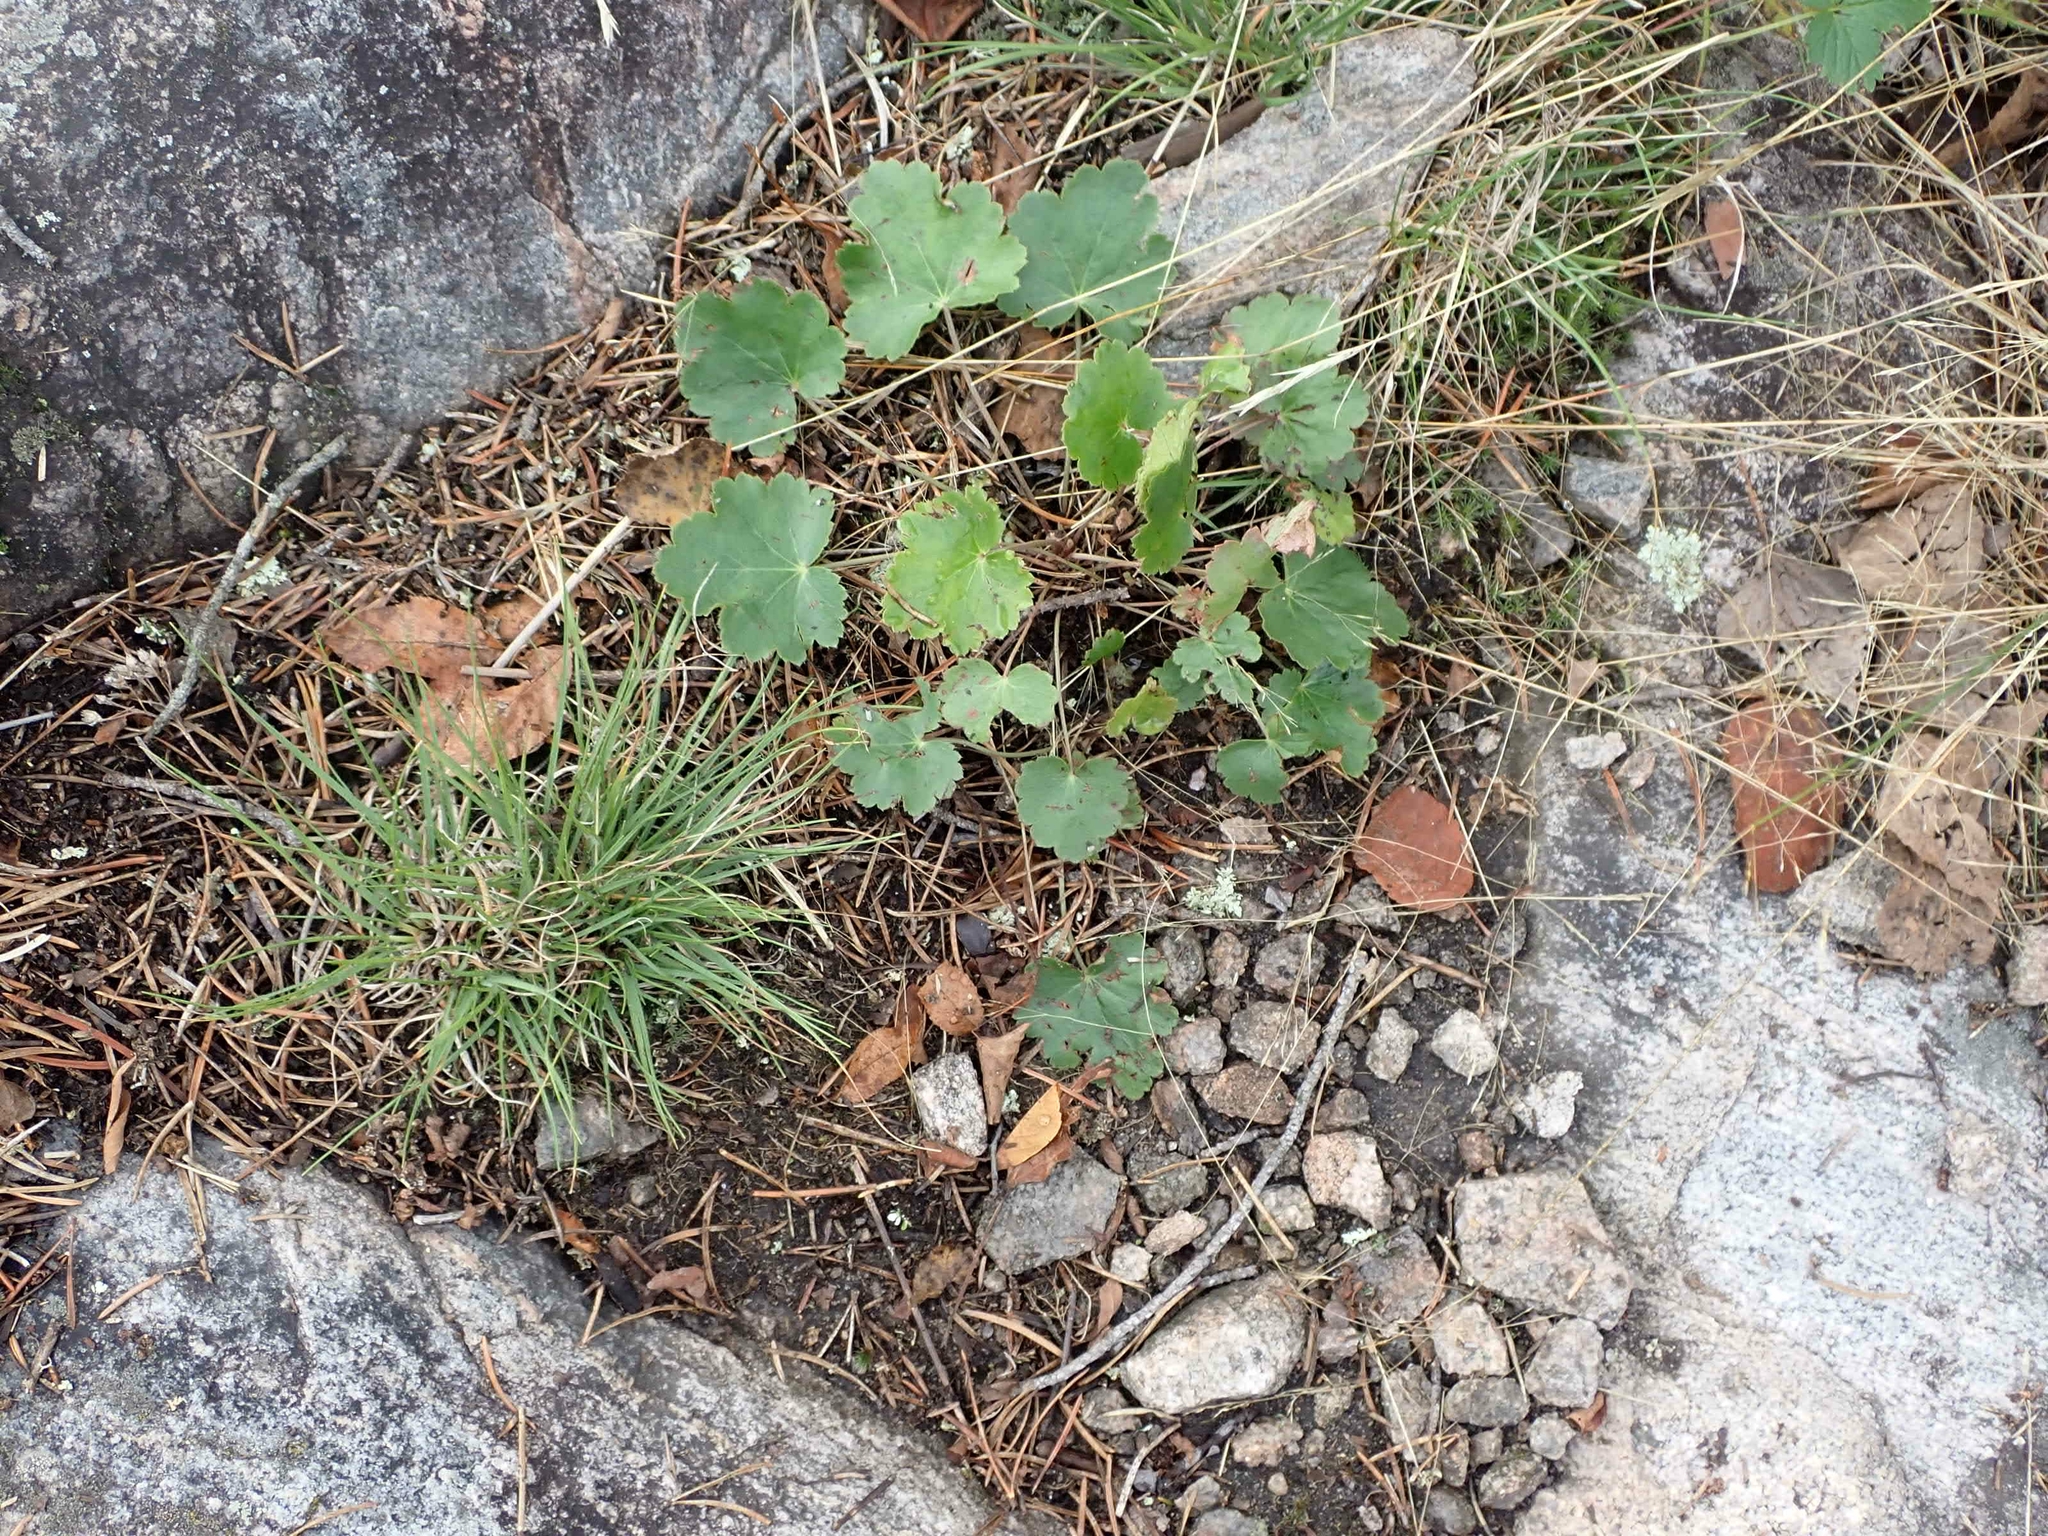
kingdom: Plantae
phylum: Tracheophyta
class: Magnoliopsida
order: Saxifragales
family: Saxifragaceae
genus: Heuchera
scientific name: Heuchera richardsonii
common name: Richardson's alumroot
